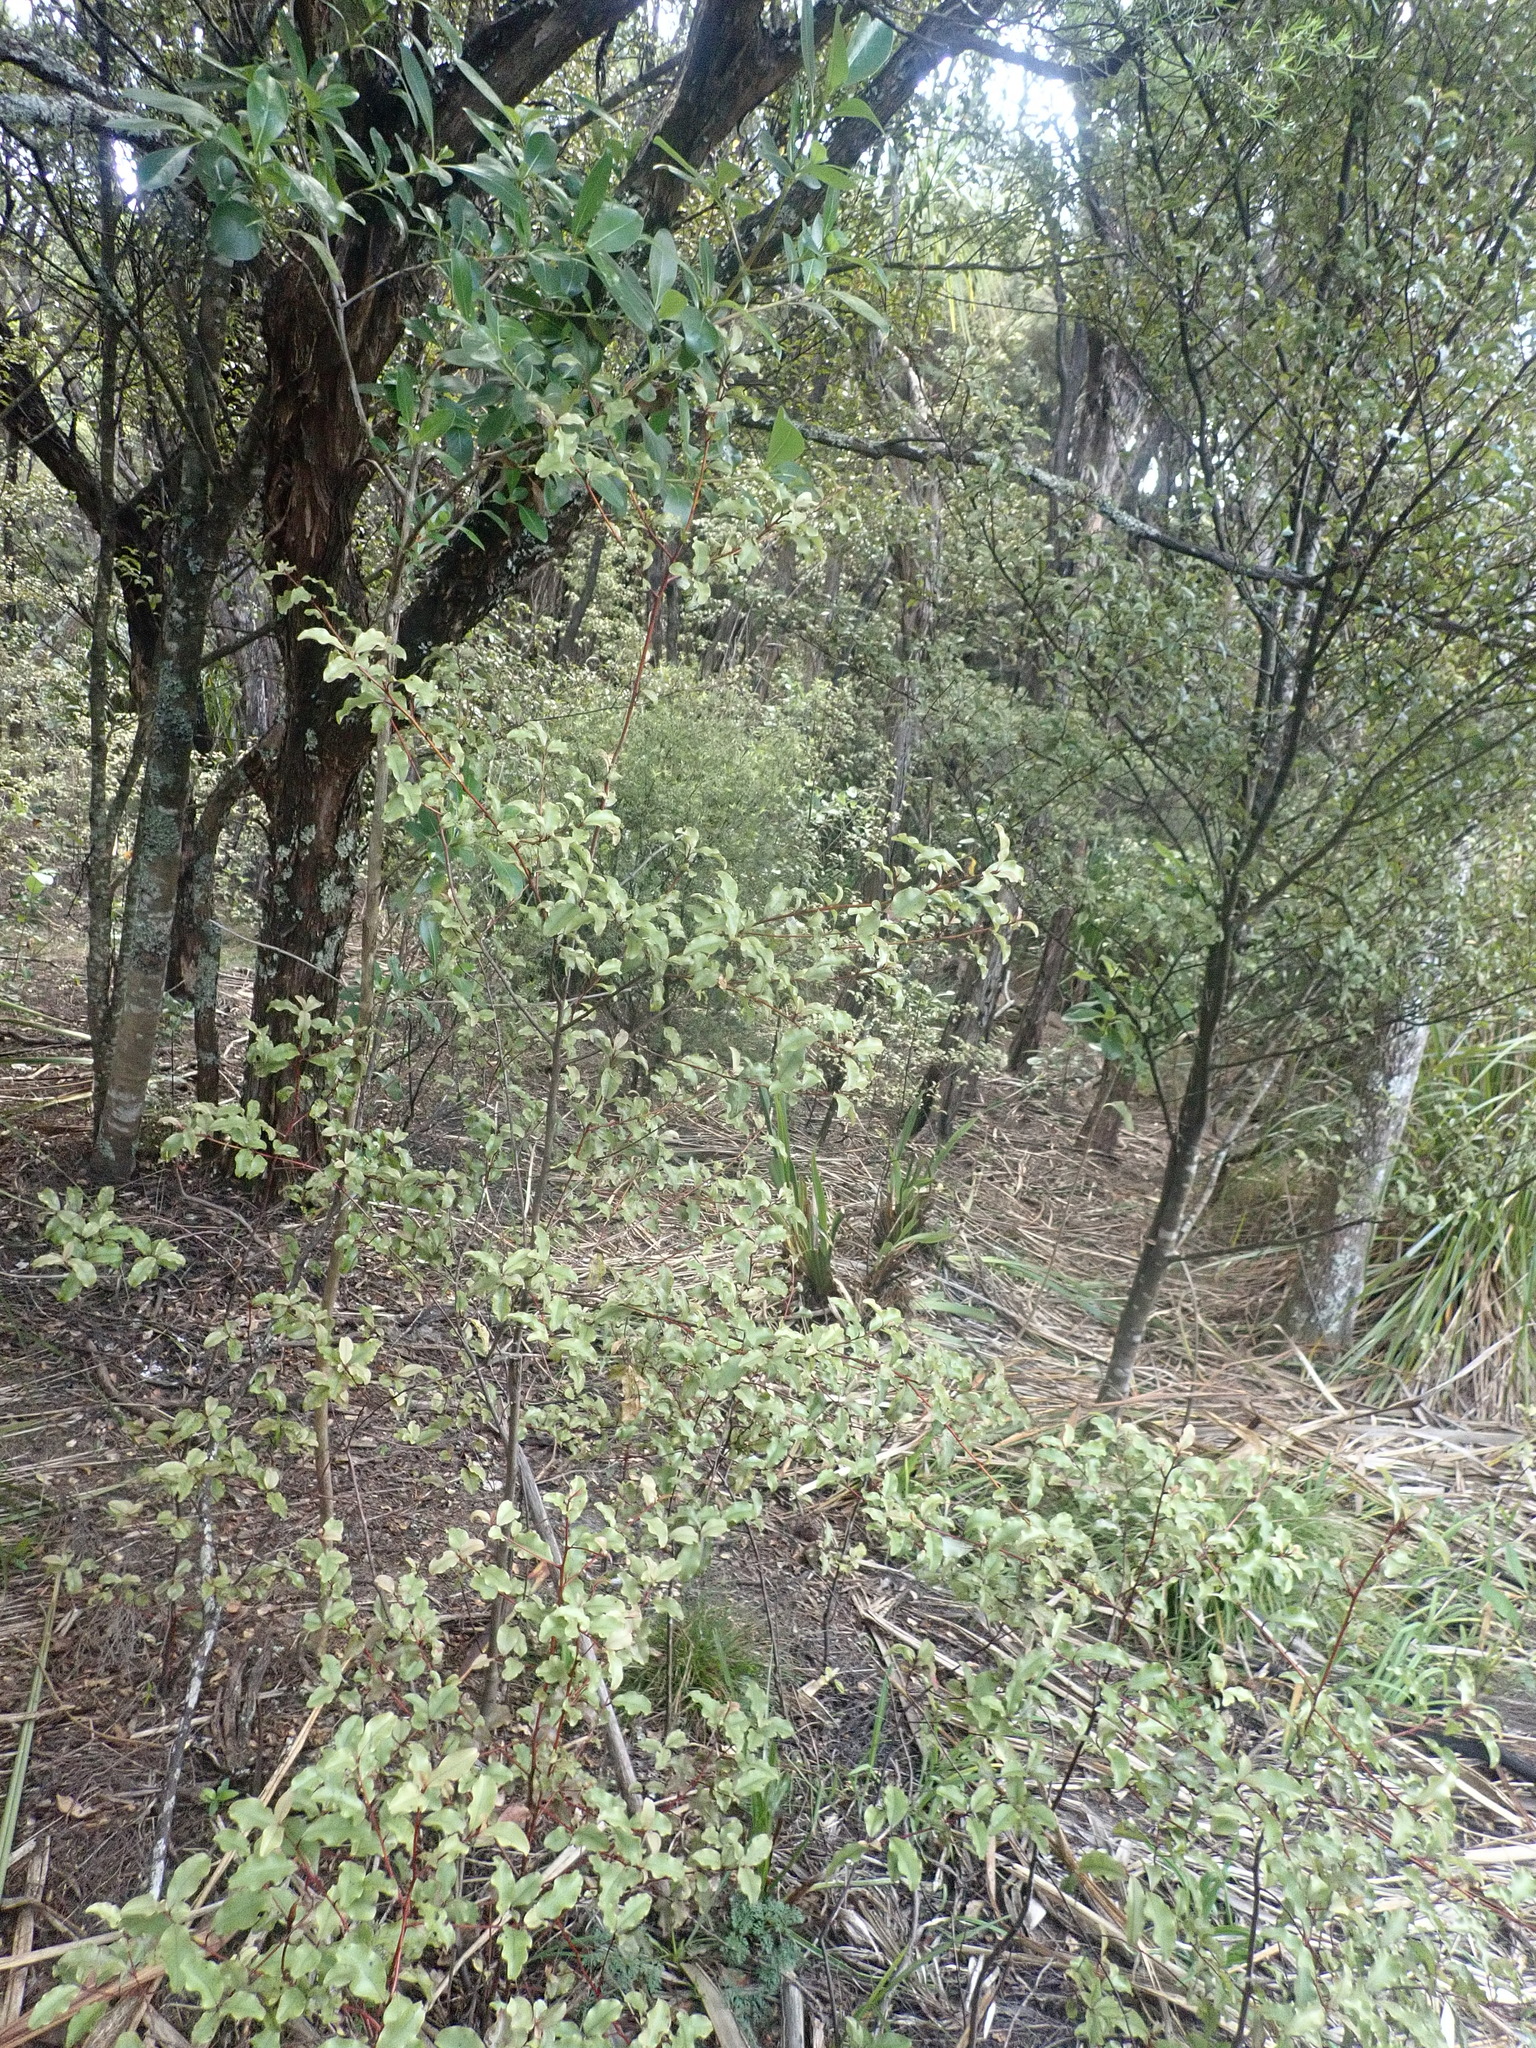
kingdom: Plantae
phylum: Tracheophyta
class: Magnoliopsida
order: Ericales
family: Primulaceae
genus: Myrsine
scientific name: Myrsine australis
